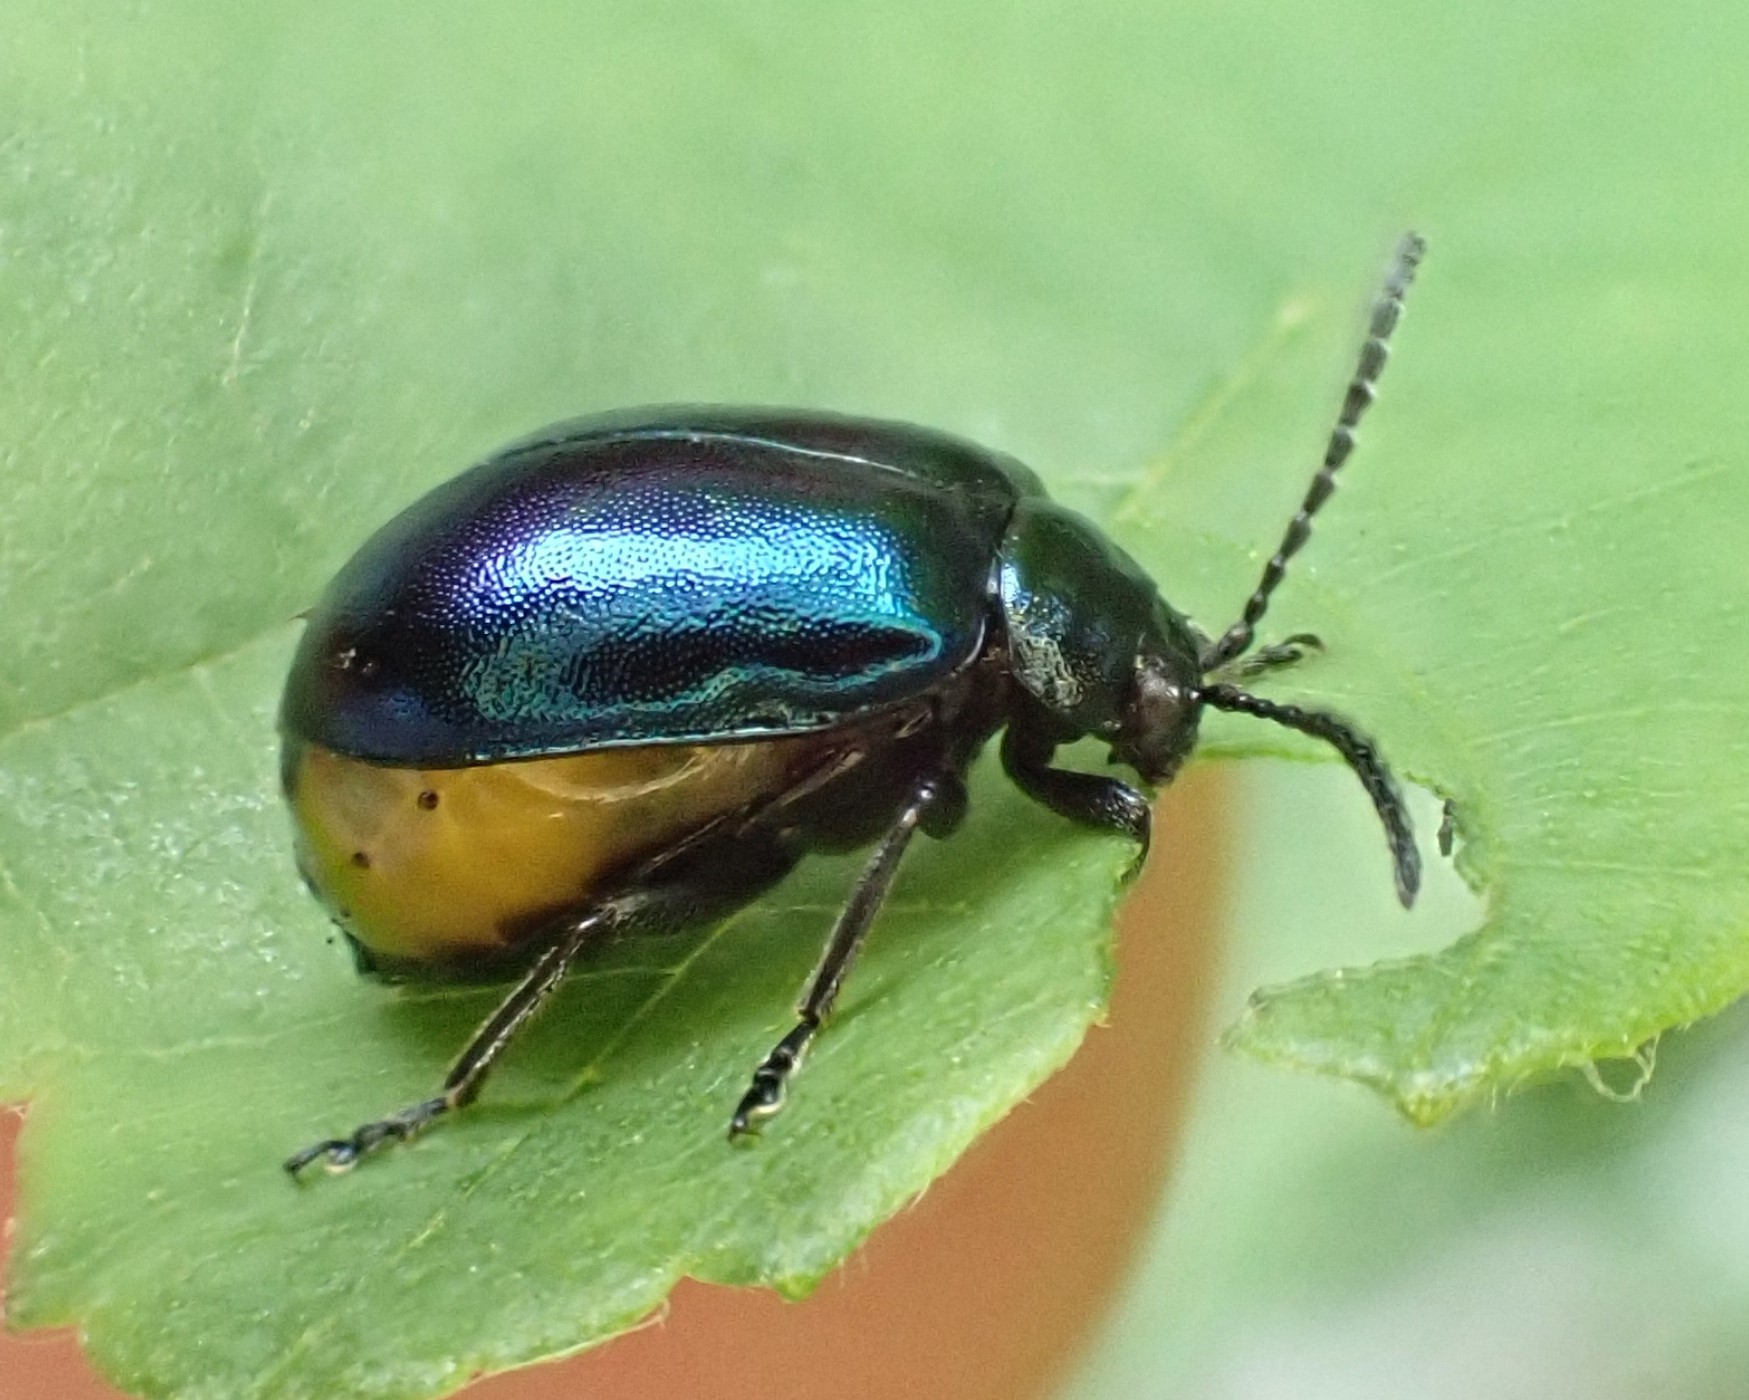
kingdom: Animalia
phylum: Arthropoda
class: Insecta
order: Coleoptera
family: Chrysomelidae
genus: Agelastica
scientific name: Agelastica alni
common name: Alder leaf beetle
